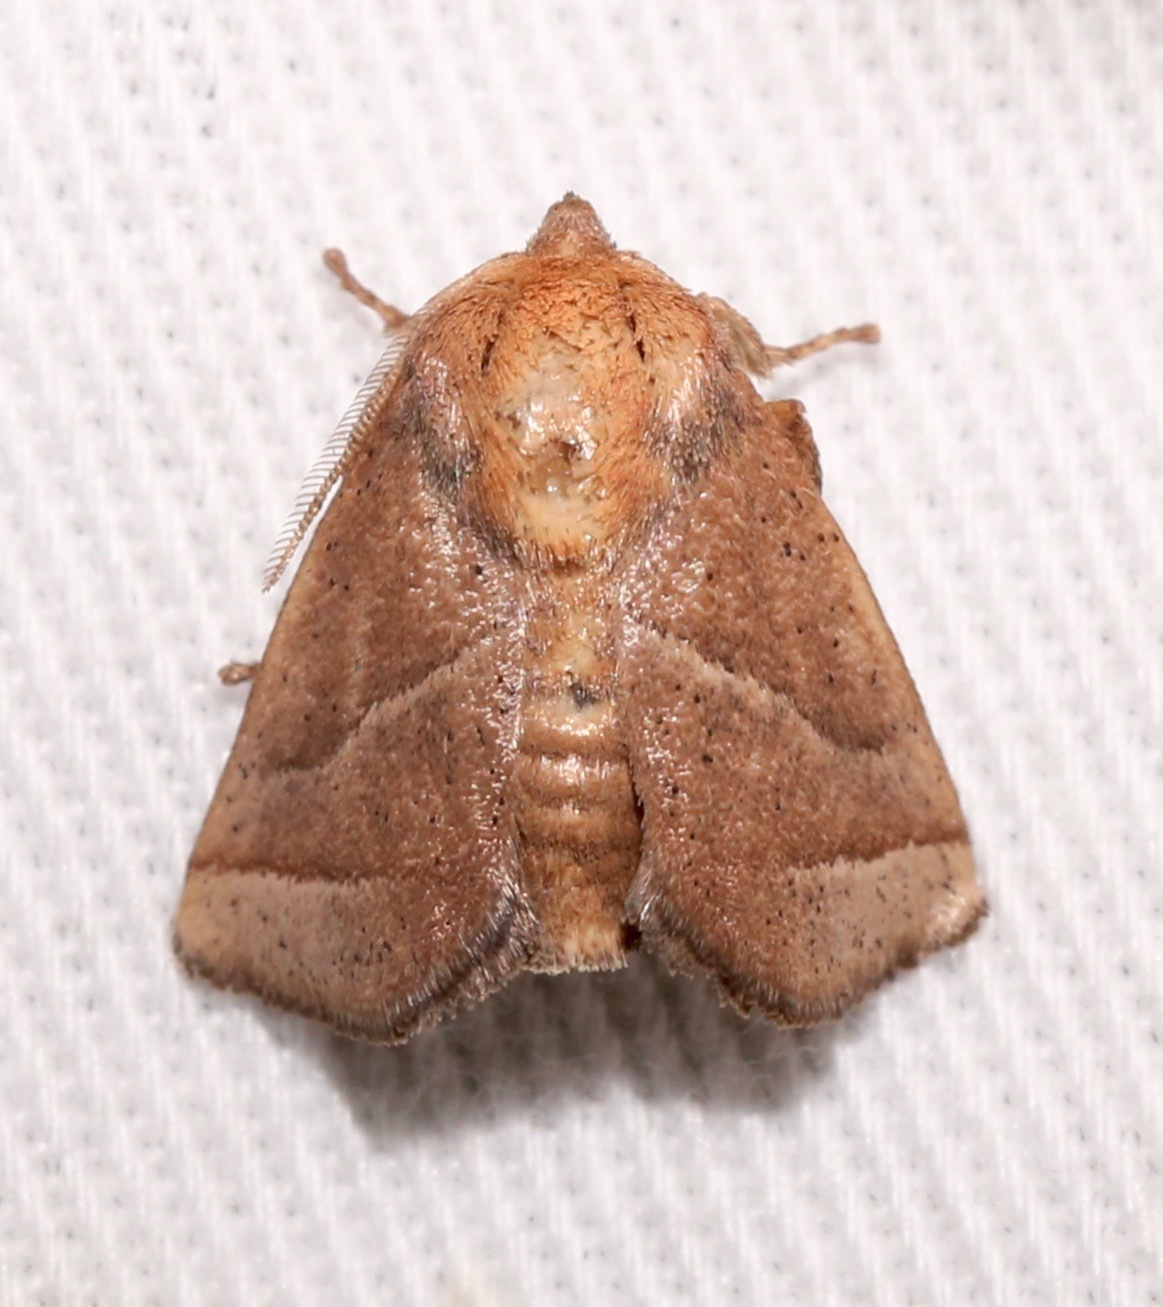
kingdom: Animalia
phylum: Arthropoda
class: Insecta
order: Lepidoptera
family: Limacodidae
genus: Natada
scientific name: Natada nasoni
